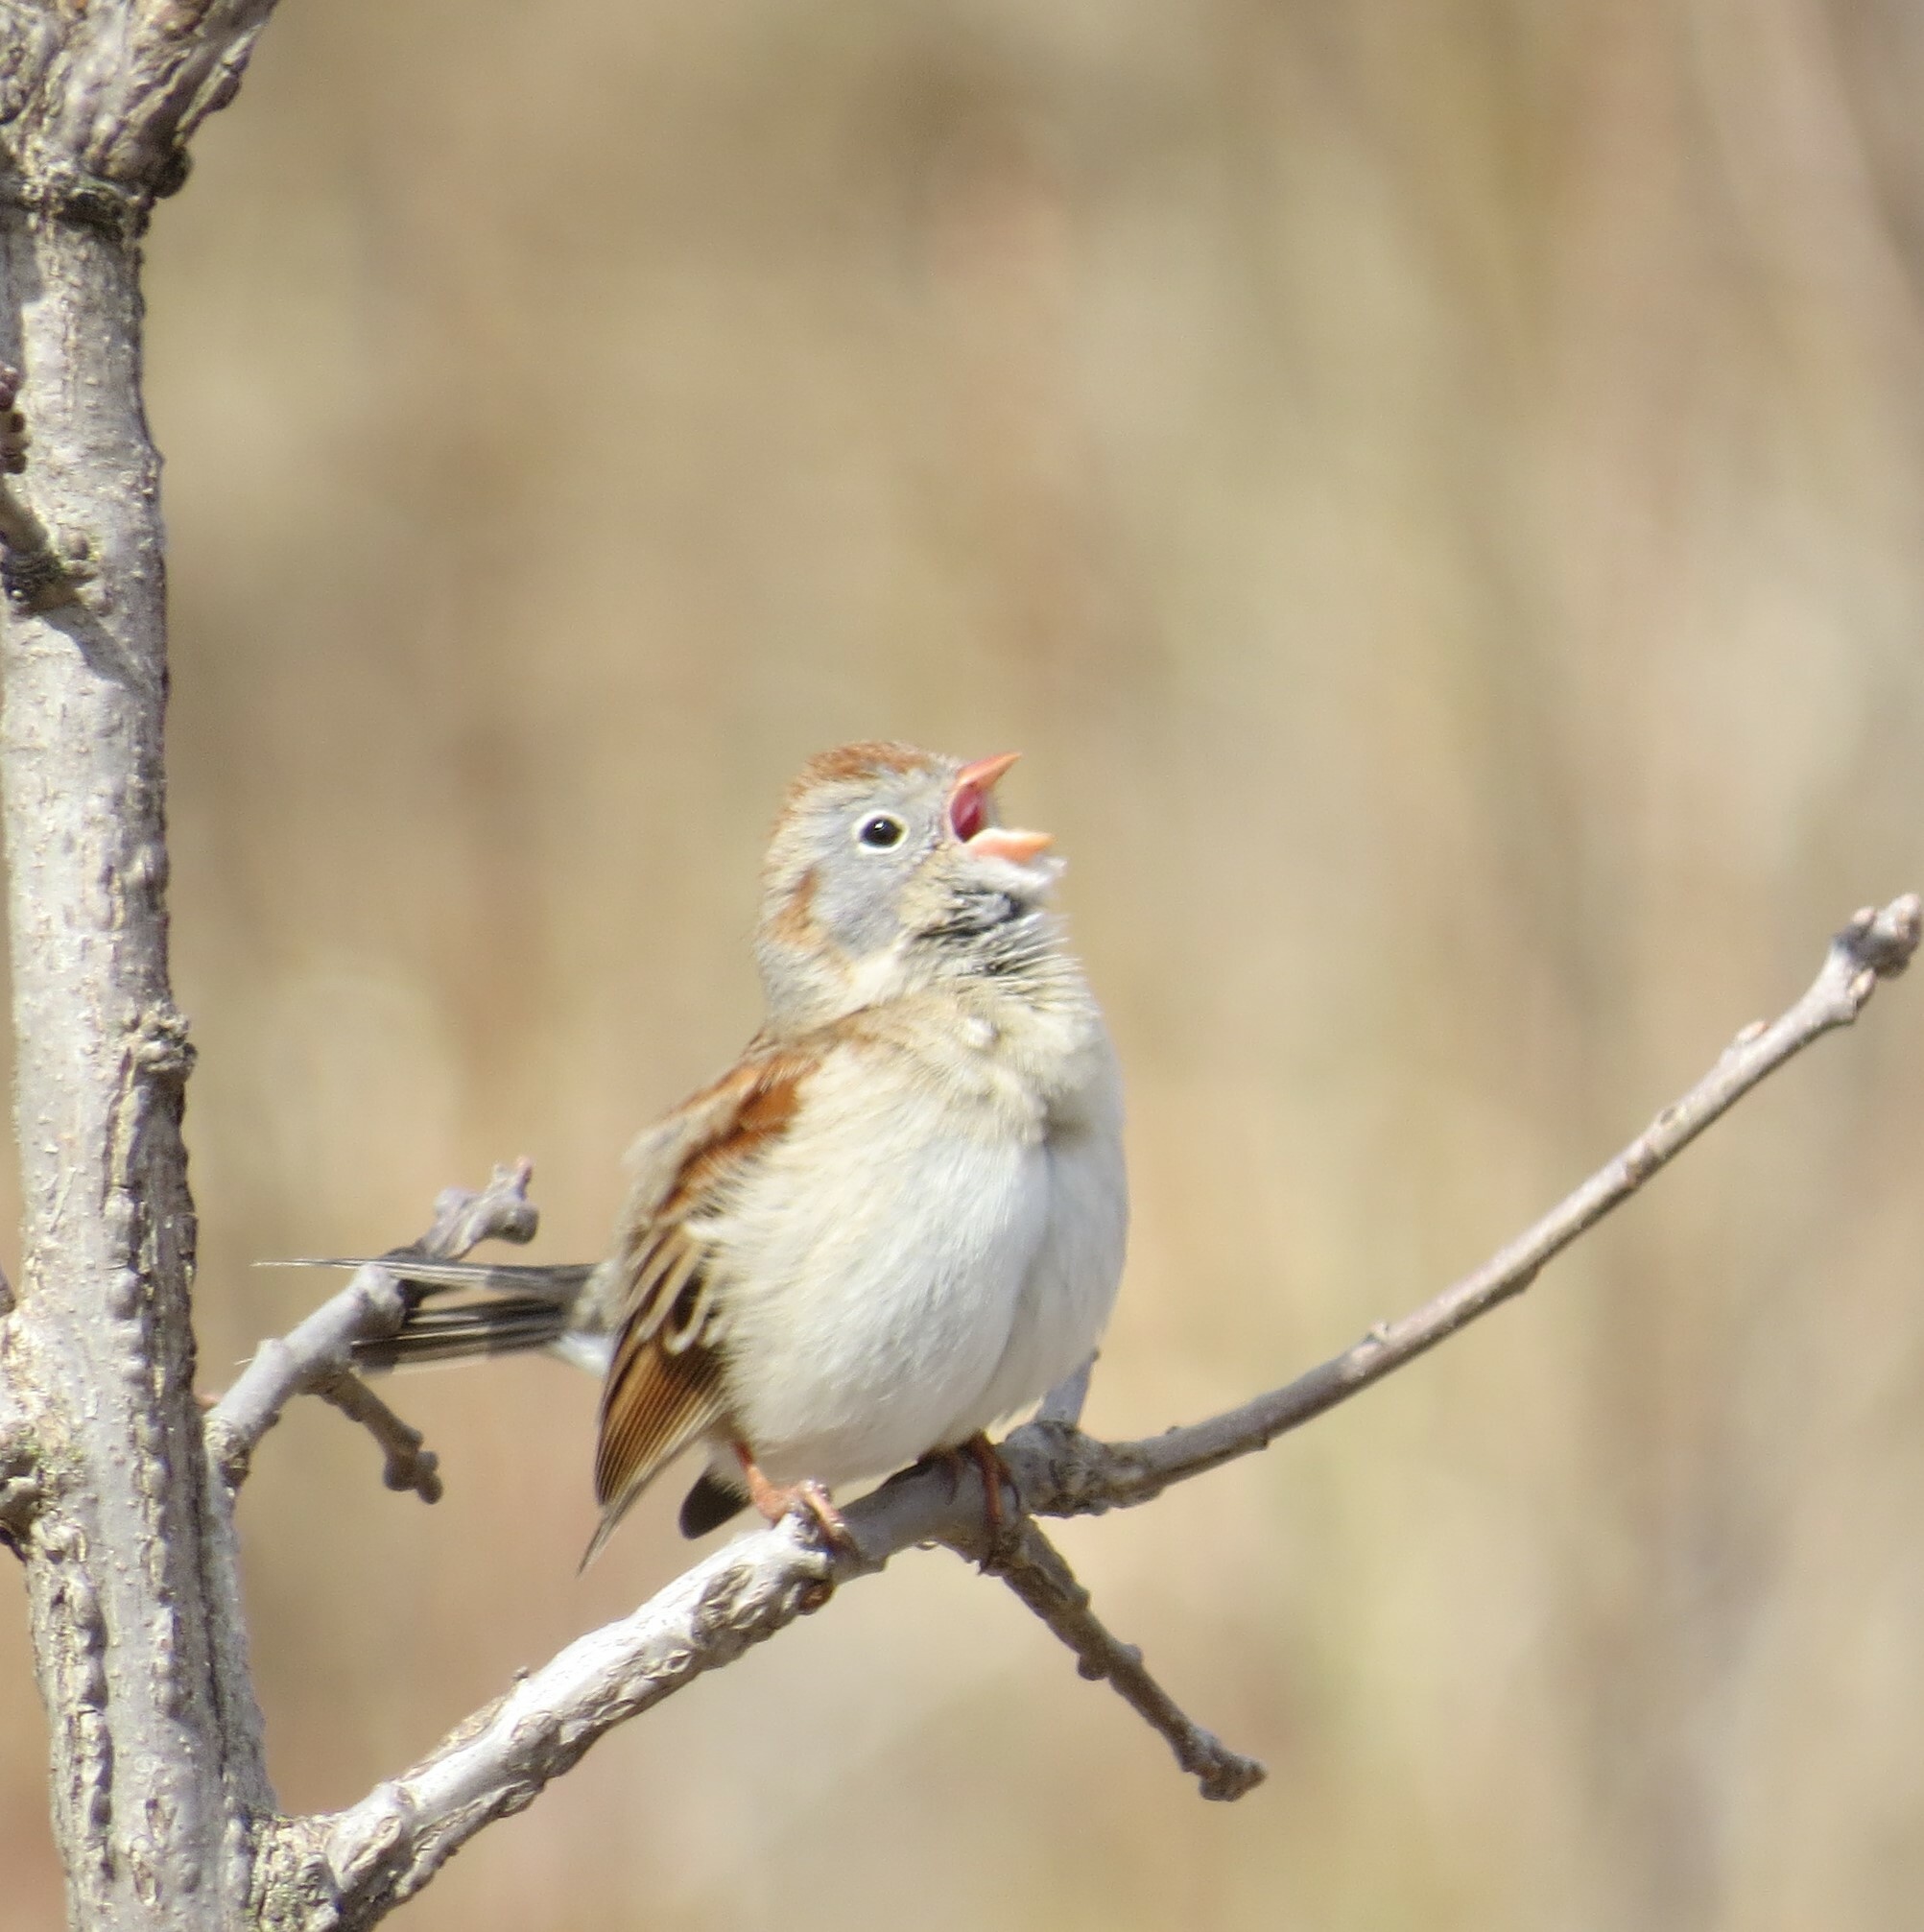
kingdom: Animalia
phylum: Chordata
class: Aves
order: Passeriformes
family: Passerellidae
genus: Spizella
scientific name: Spizella pusilla
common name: Field sparrow
